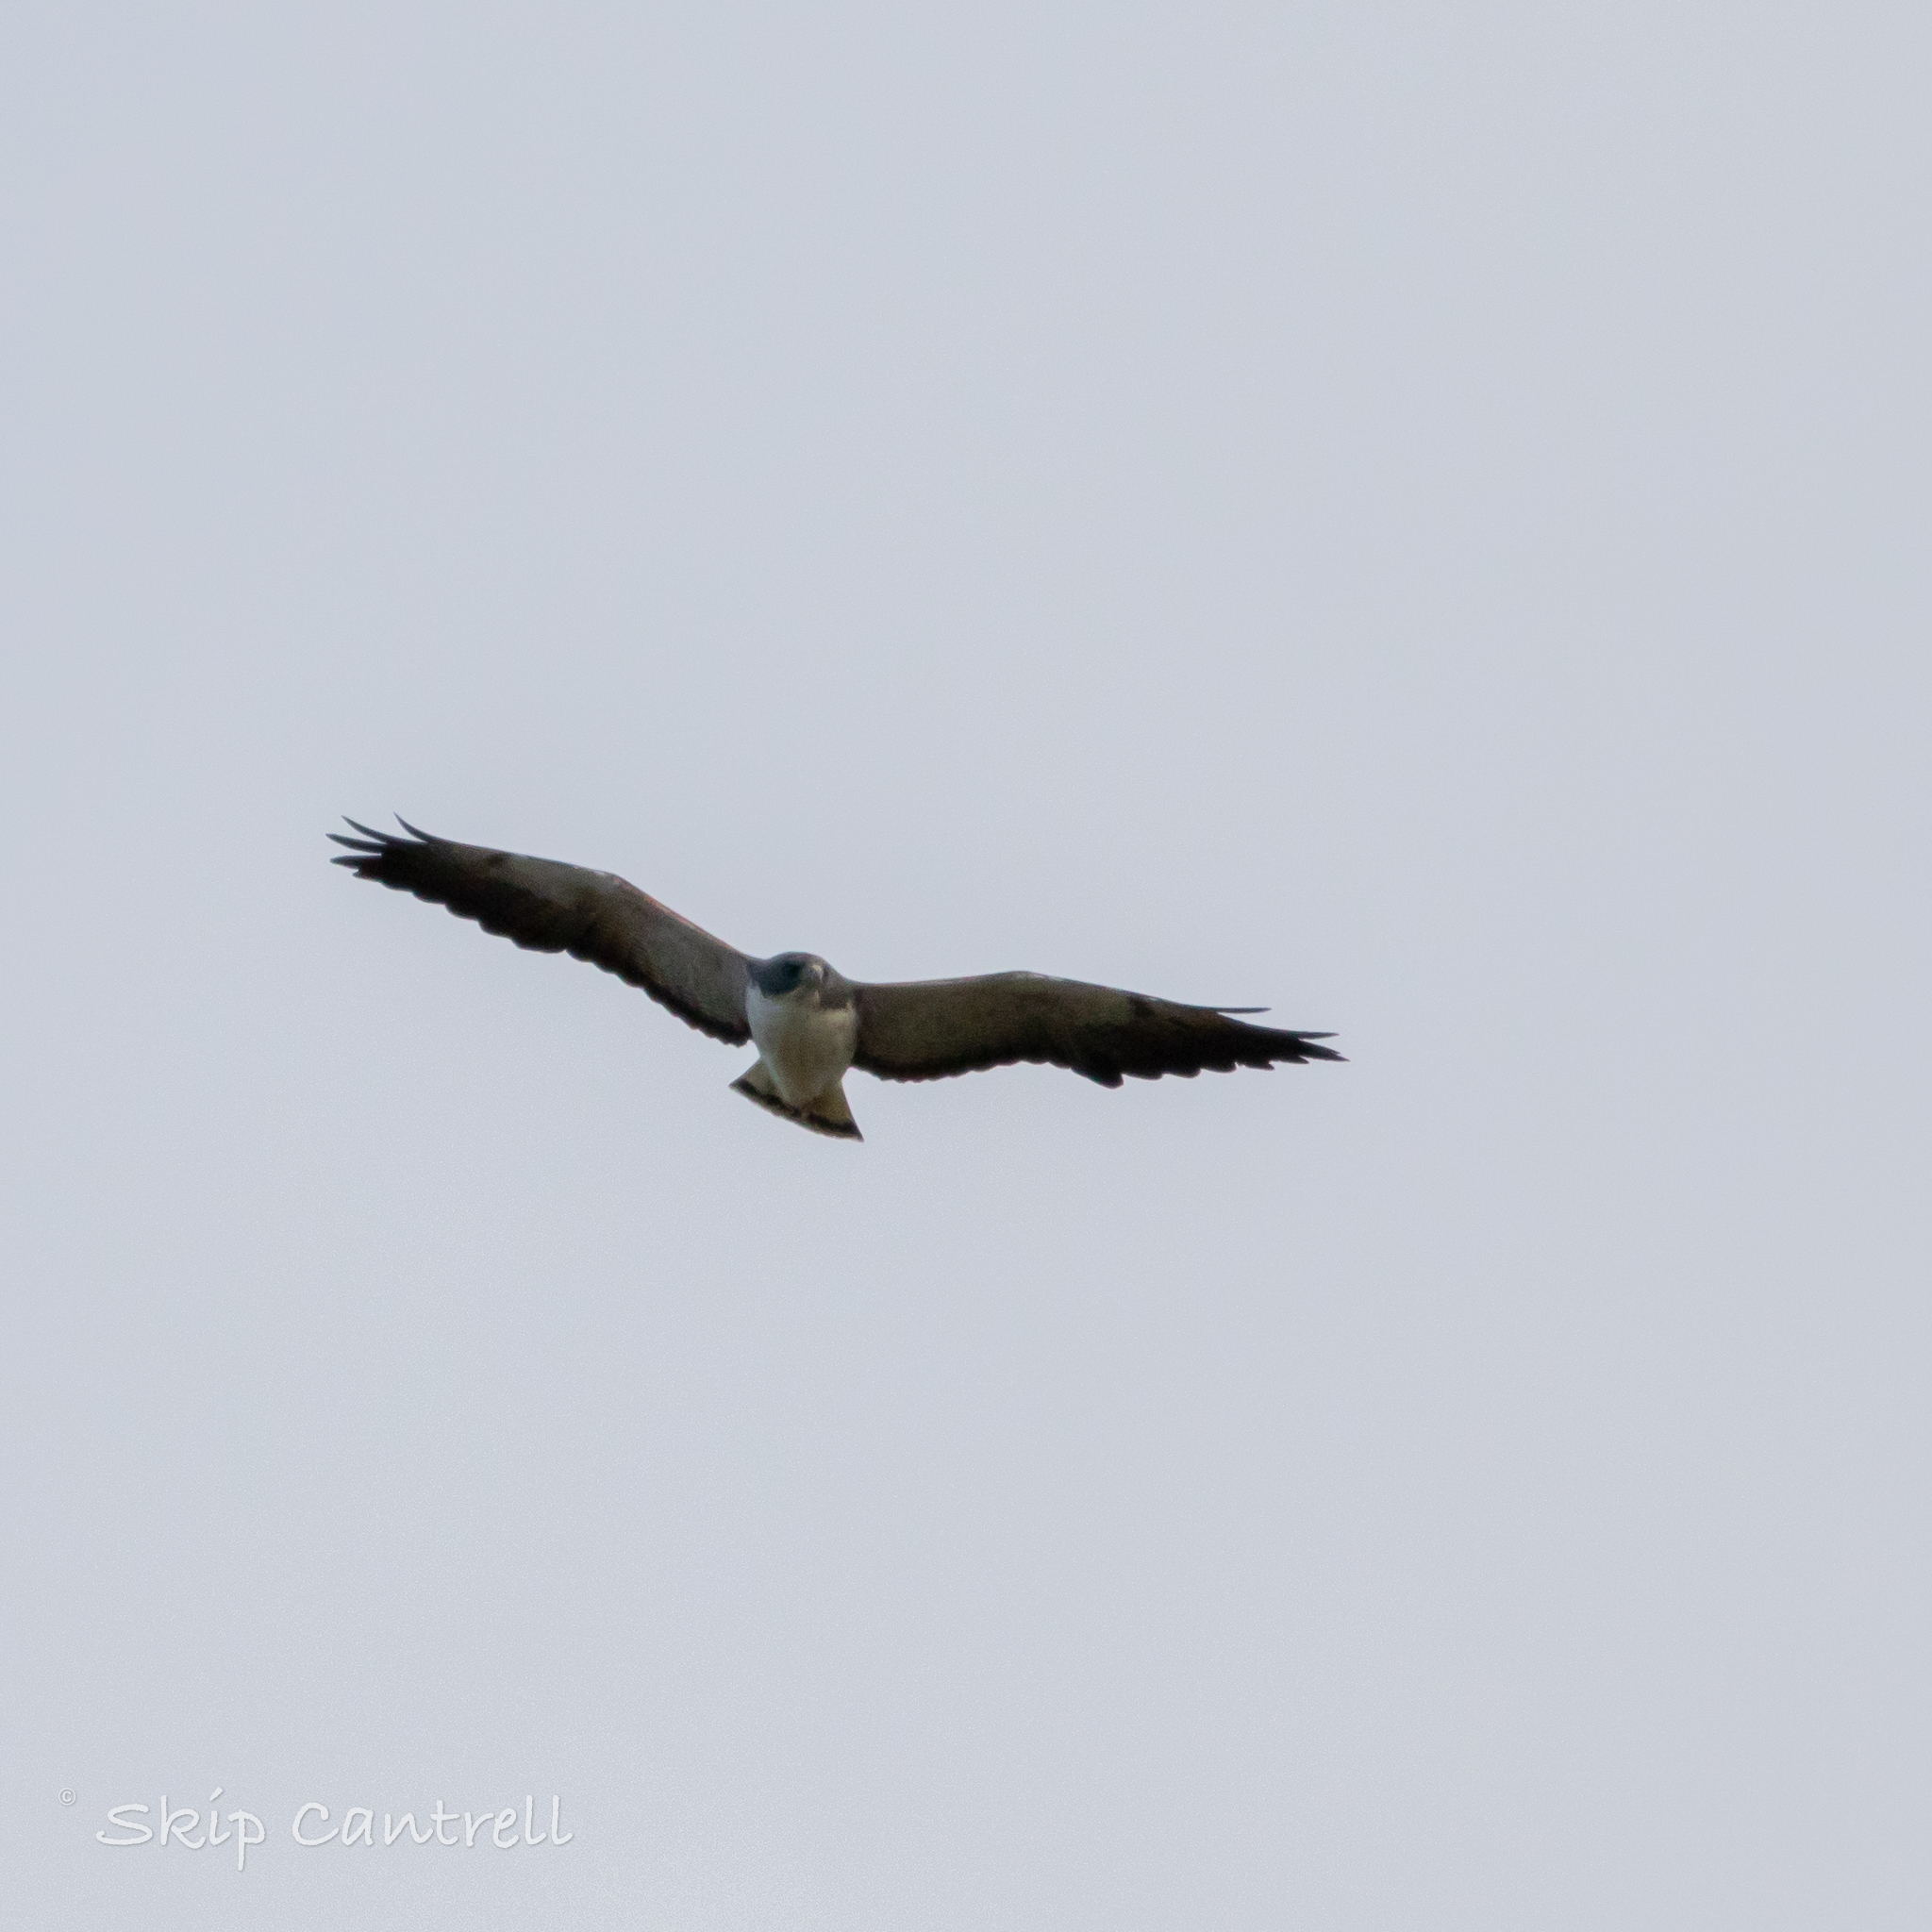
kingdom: Animalia
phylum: Chordata
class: Aves
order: Accipitriformes
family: Accipitridae
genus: Buteo
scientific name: Buteo albicaudatus
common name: White-tailed hawk
